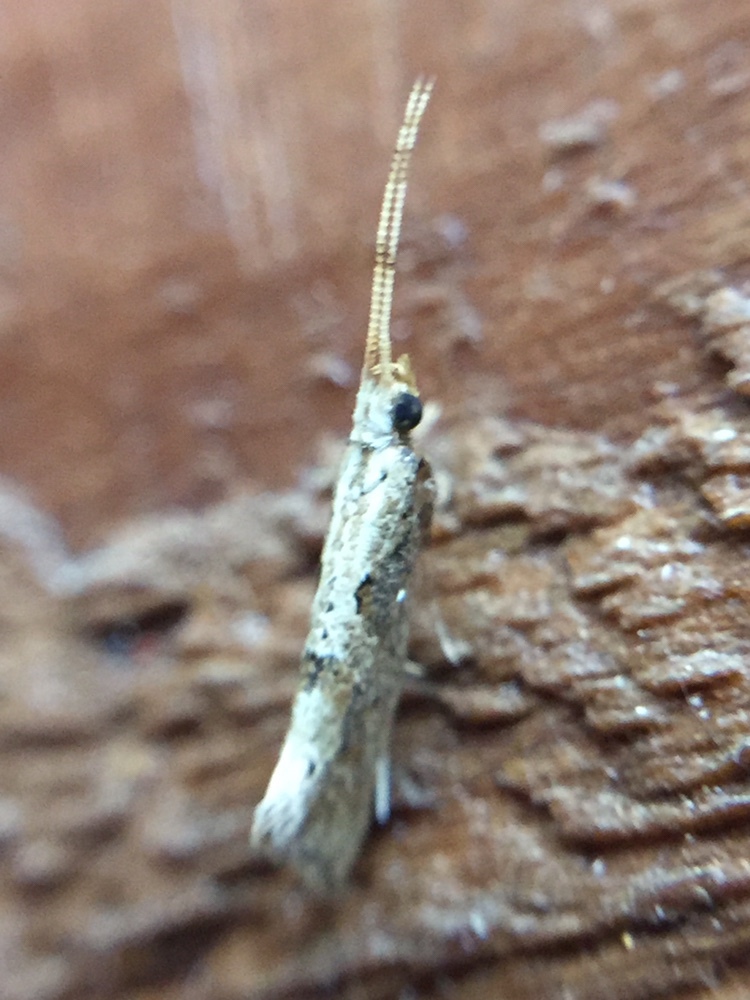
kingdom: Animalia
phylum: Arthropoda
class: Insecta
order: Lepidoptera
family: Plutellidae
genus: Leuroperna
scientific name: Leuroperna sera
